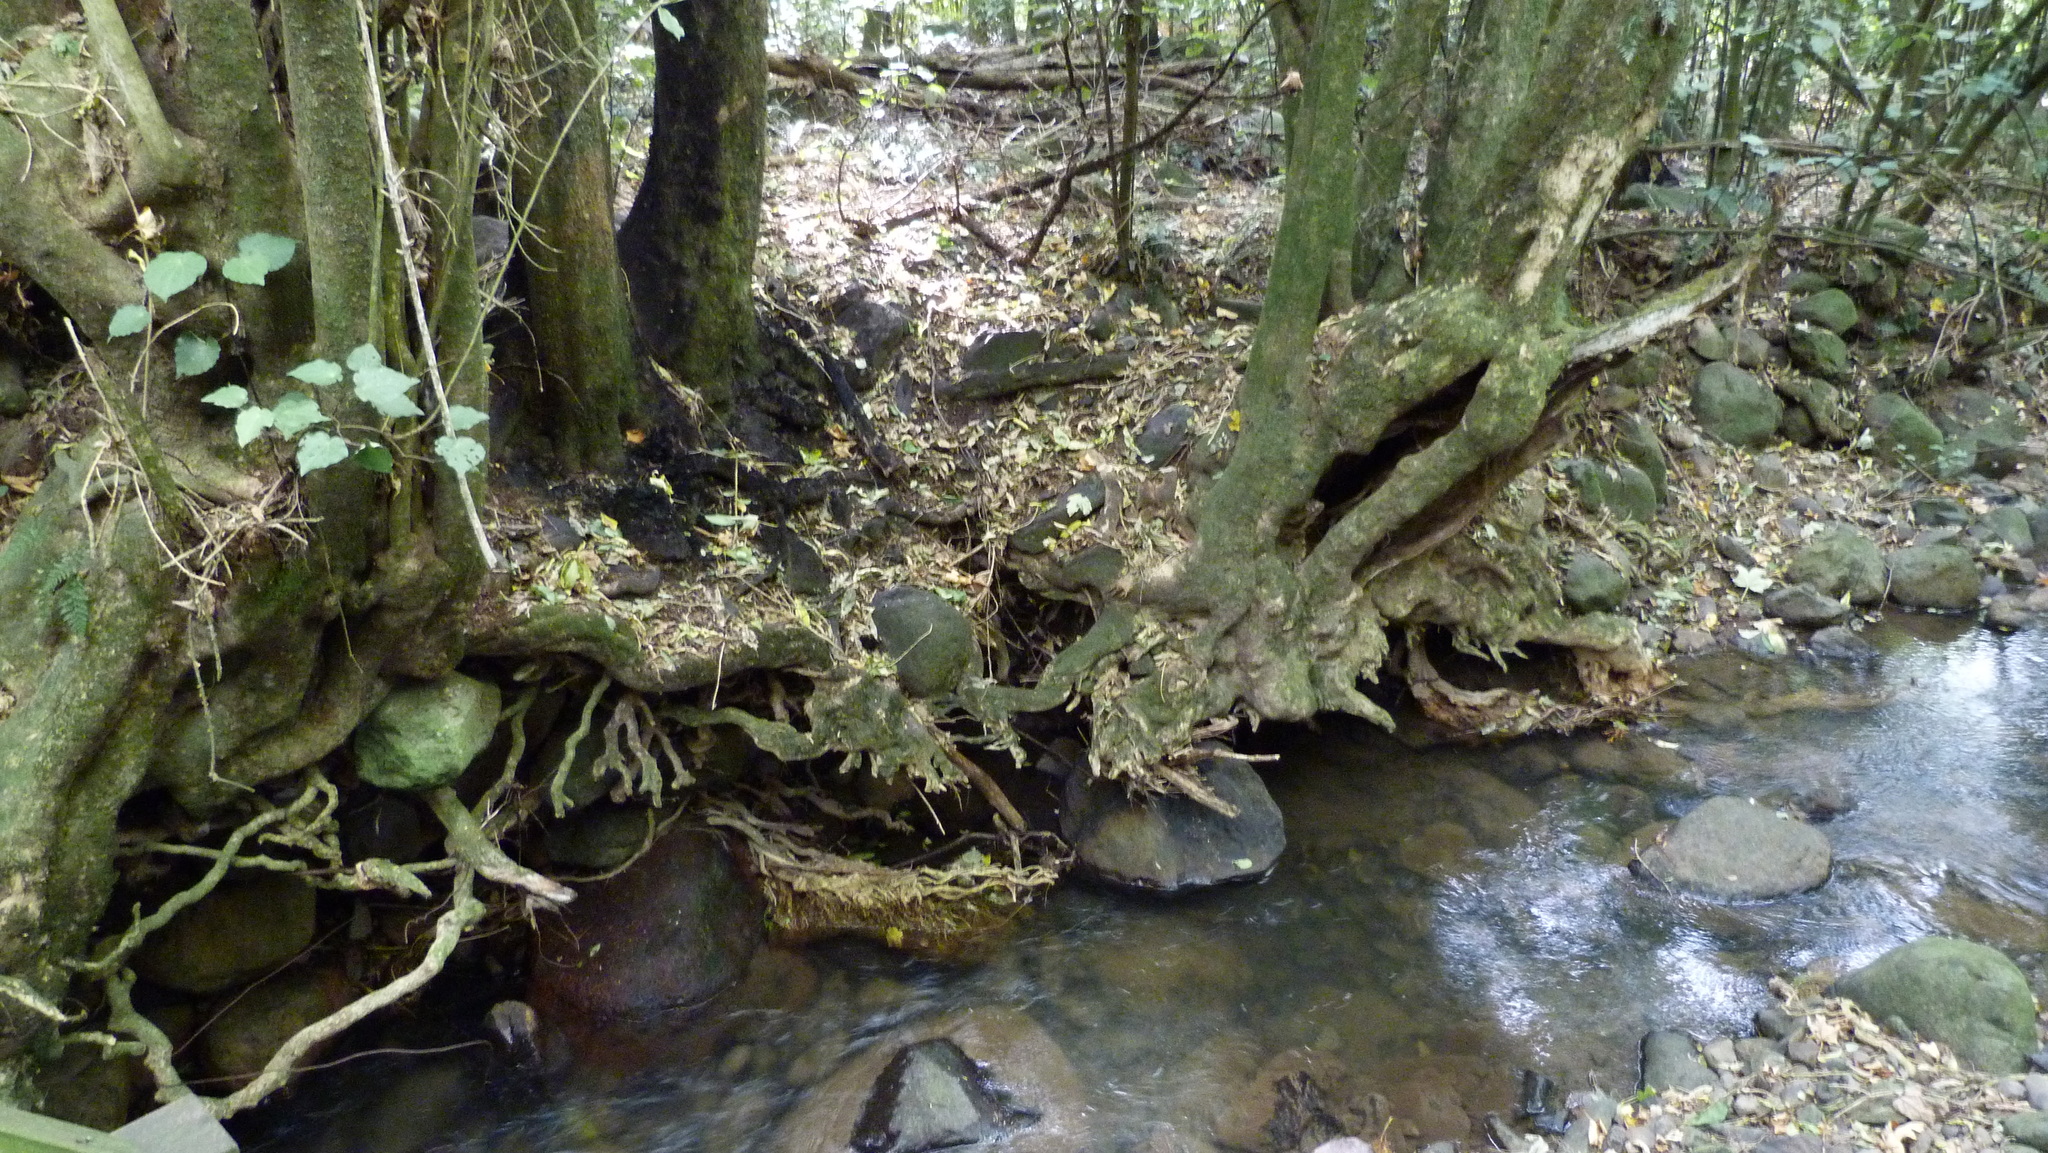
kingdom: Plantae
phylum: Tracheophyta
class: Magnoliopsida
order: Malpighiales
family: Violaceae
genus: Melicytus
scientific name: Melicytus ramiflorus
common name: Mahoe
